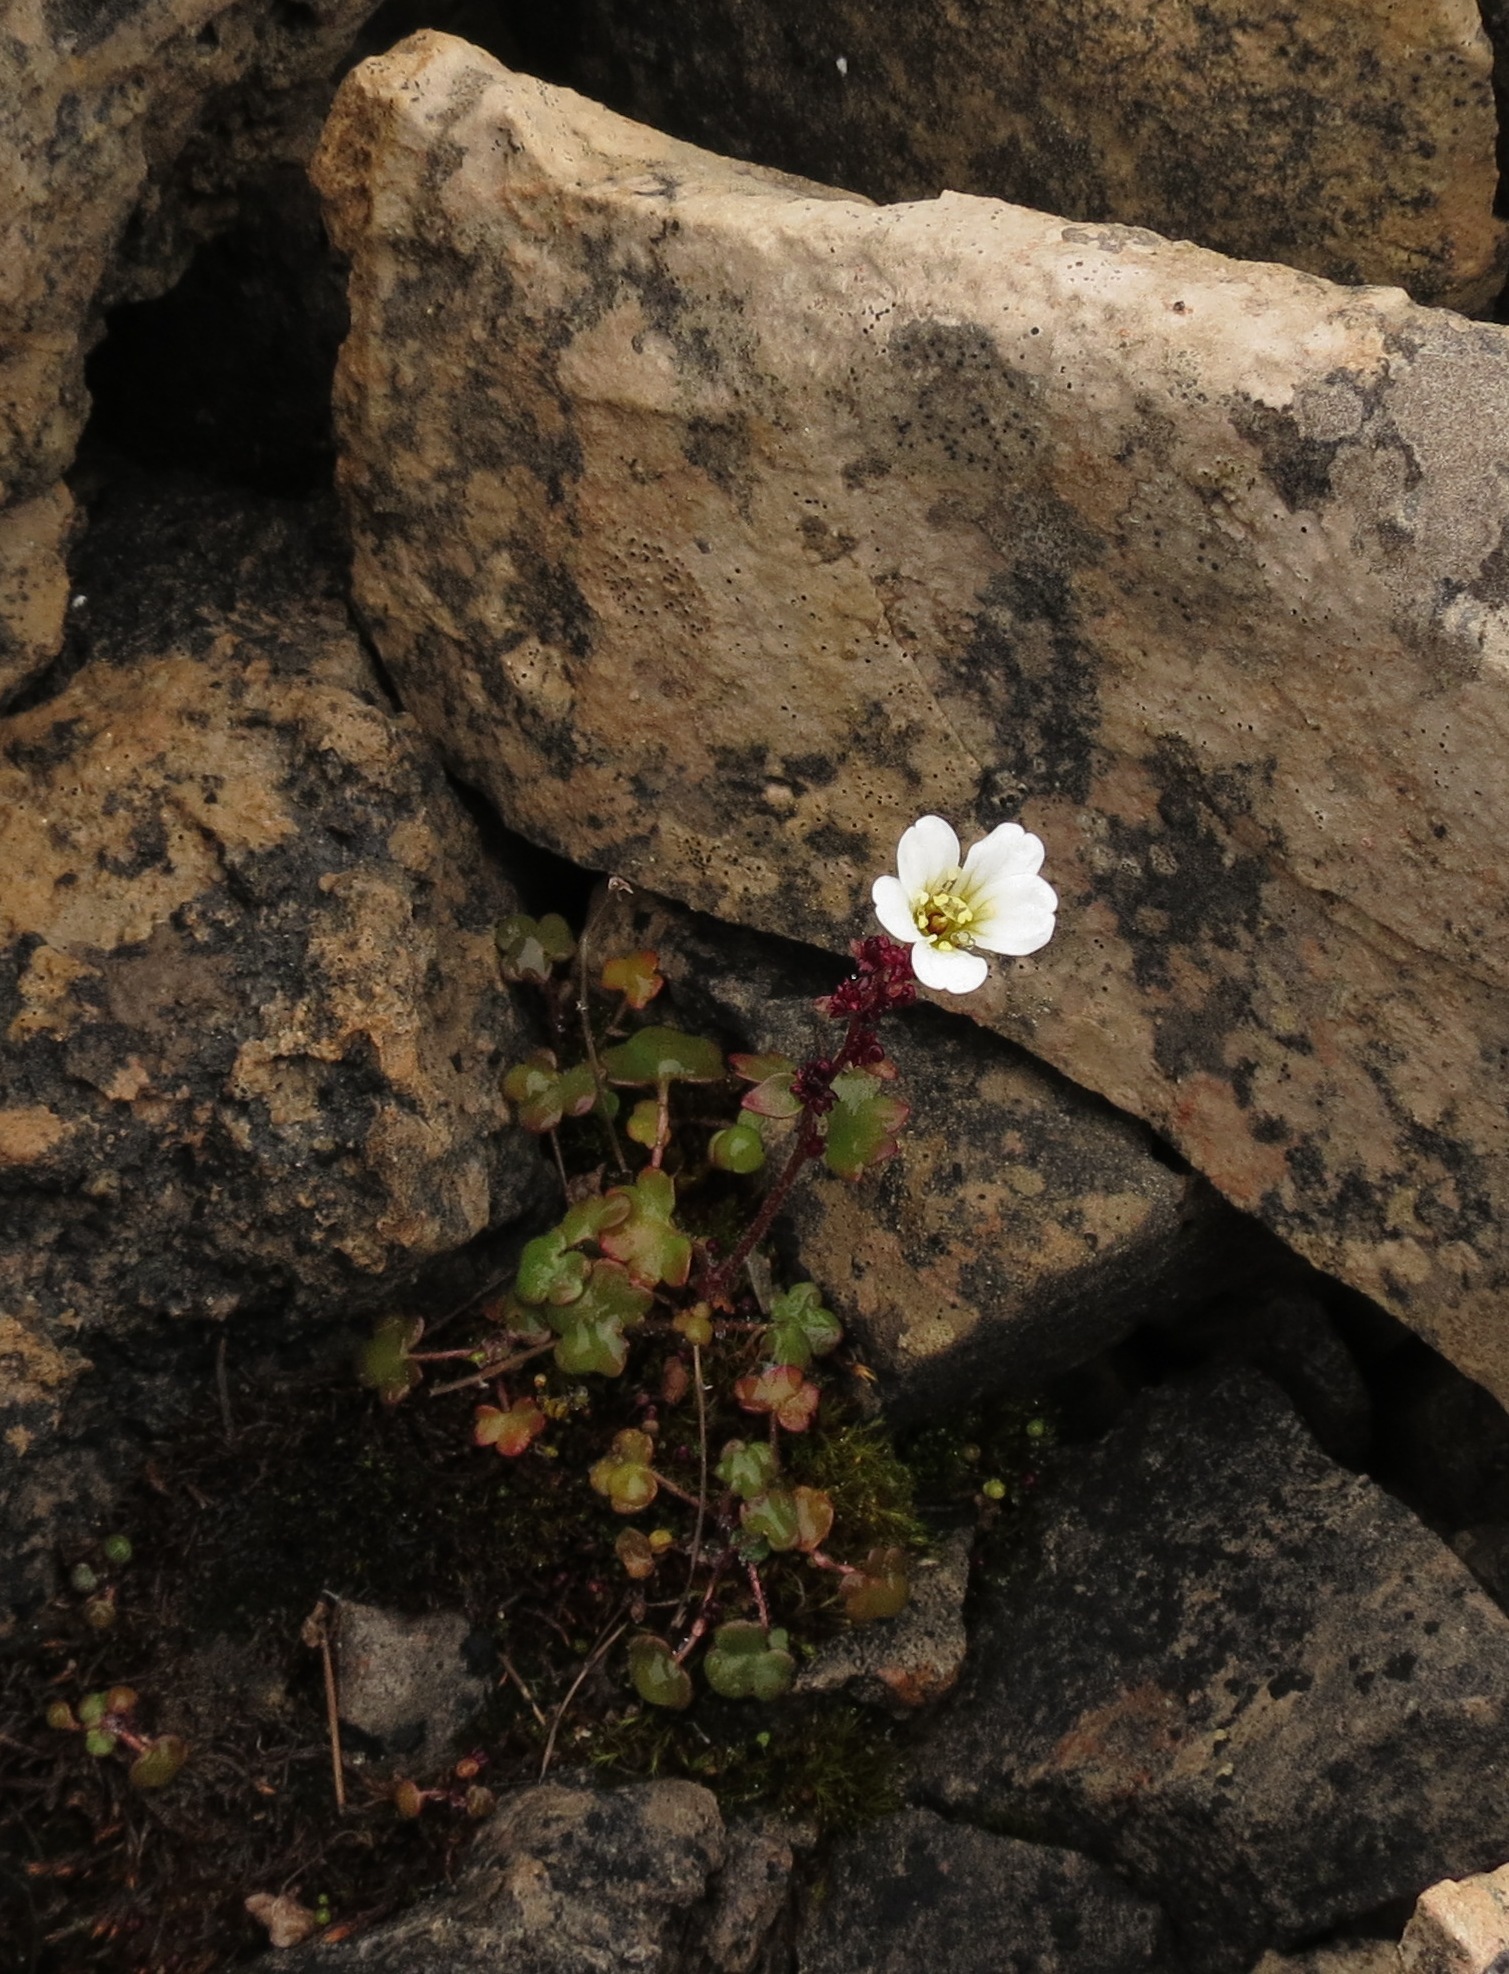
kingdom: Plantae
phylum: Tracheophyta
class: Magnoliopsida
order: Saxifragales
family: Saxifragaceae
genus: Saxifraga
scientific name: Saxifraga cernua
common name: Drooping saxifrage
